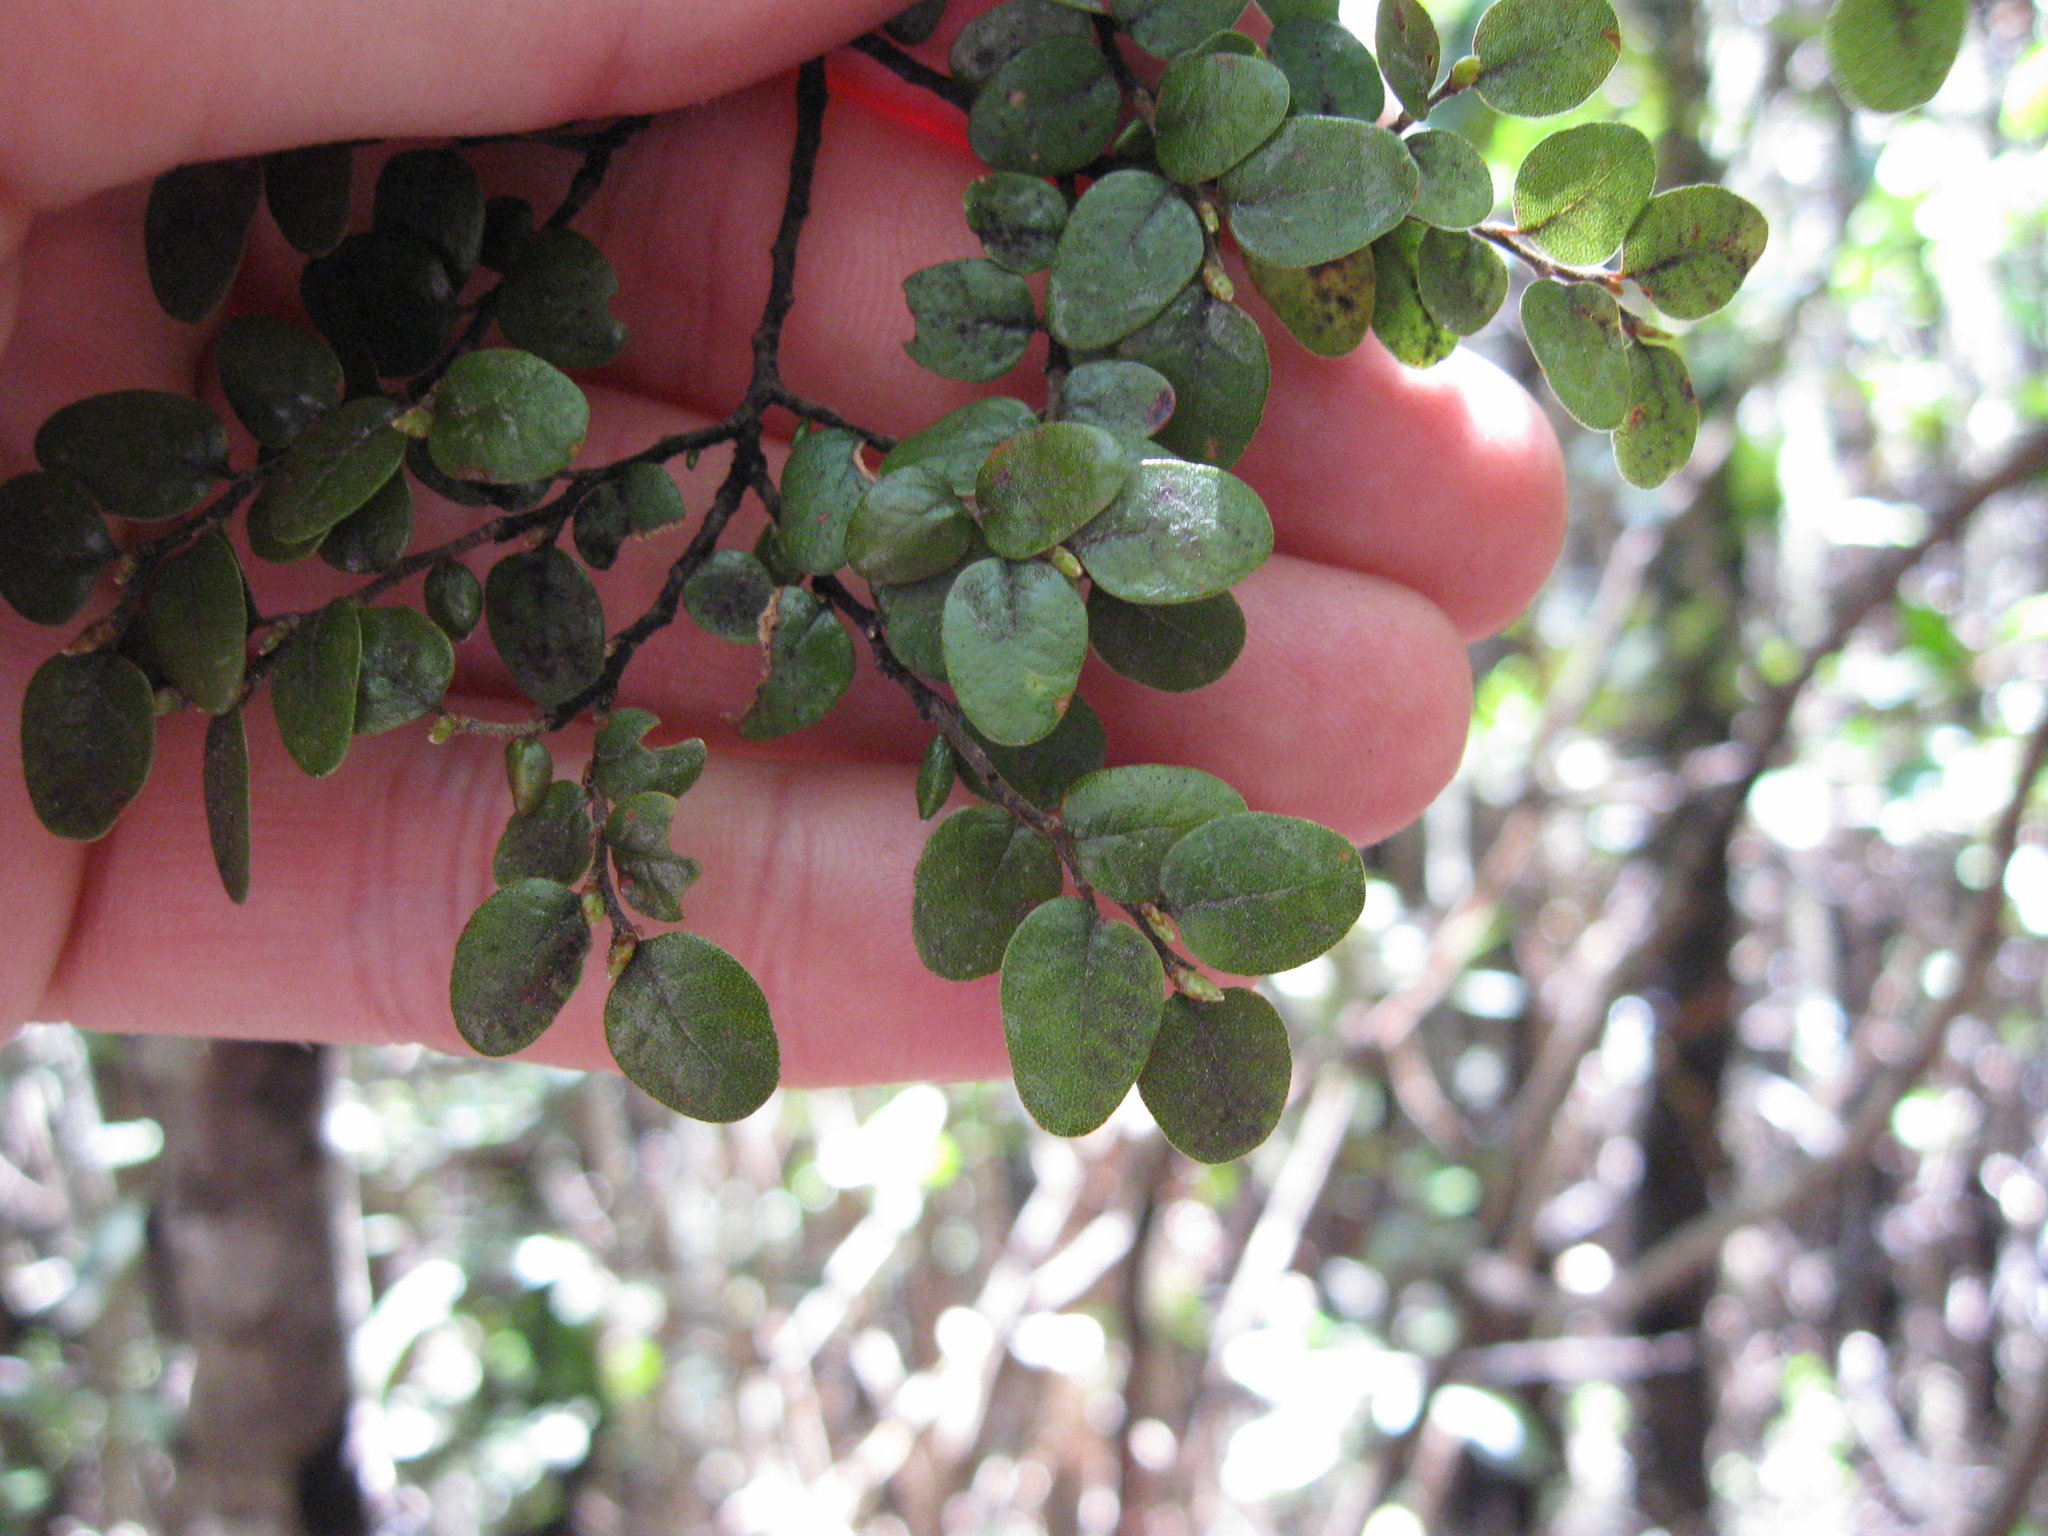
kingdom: Plantae
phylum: Tracheophyta
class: Magnoliopsida
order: Fagales
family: Nothofagaceae
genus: Nothofagus
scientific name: Nothofagus cliffortioides
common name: Mountain beech
